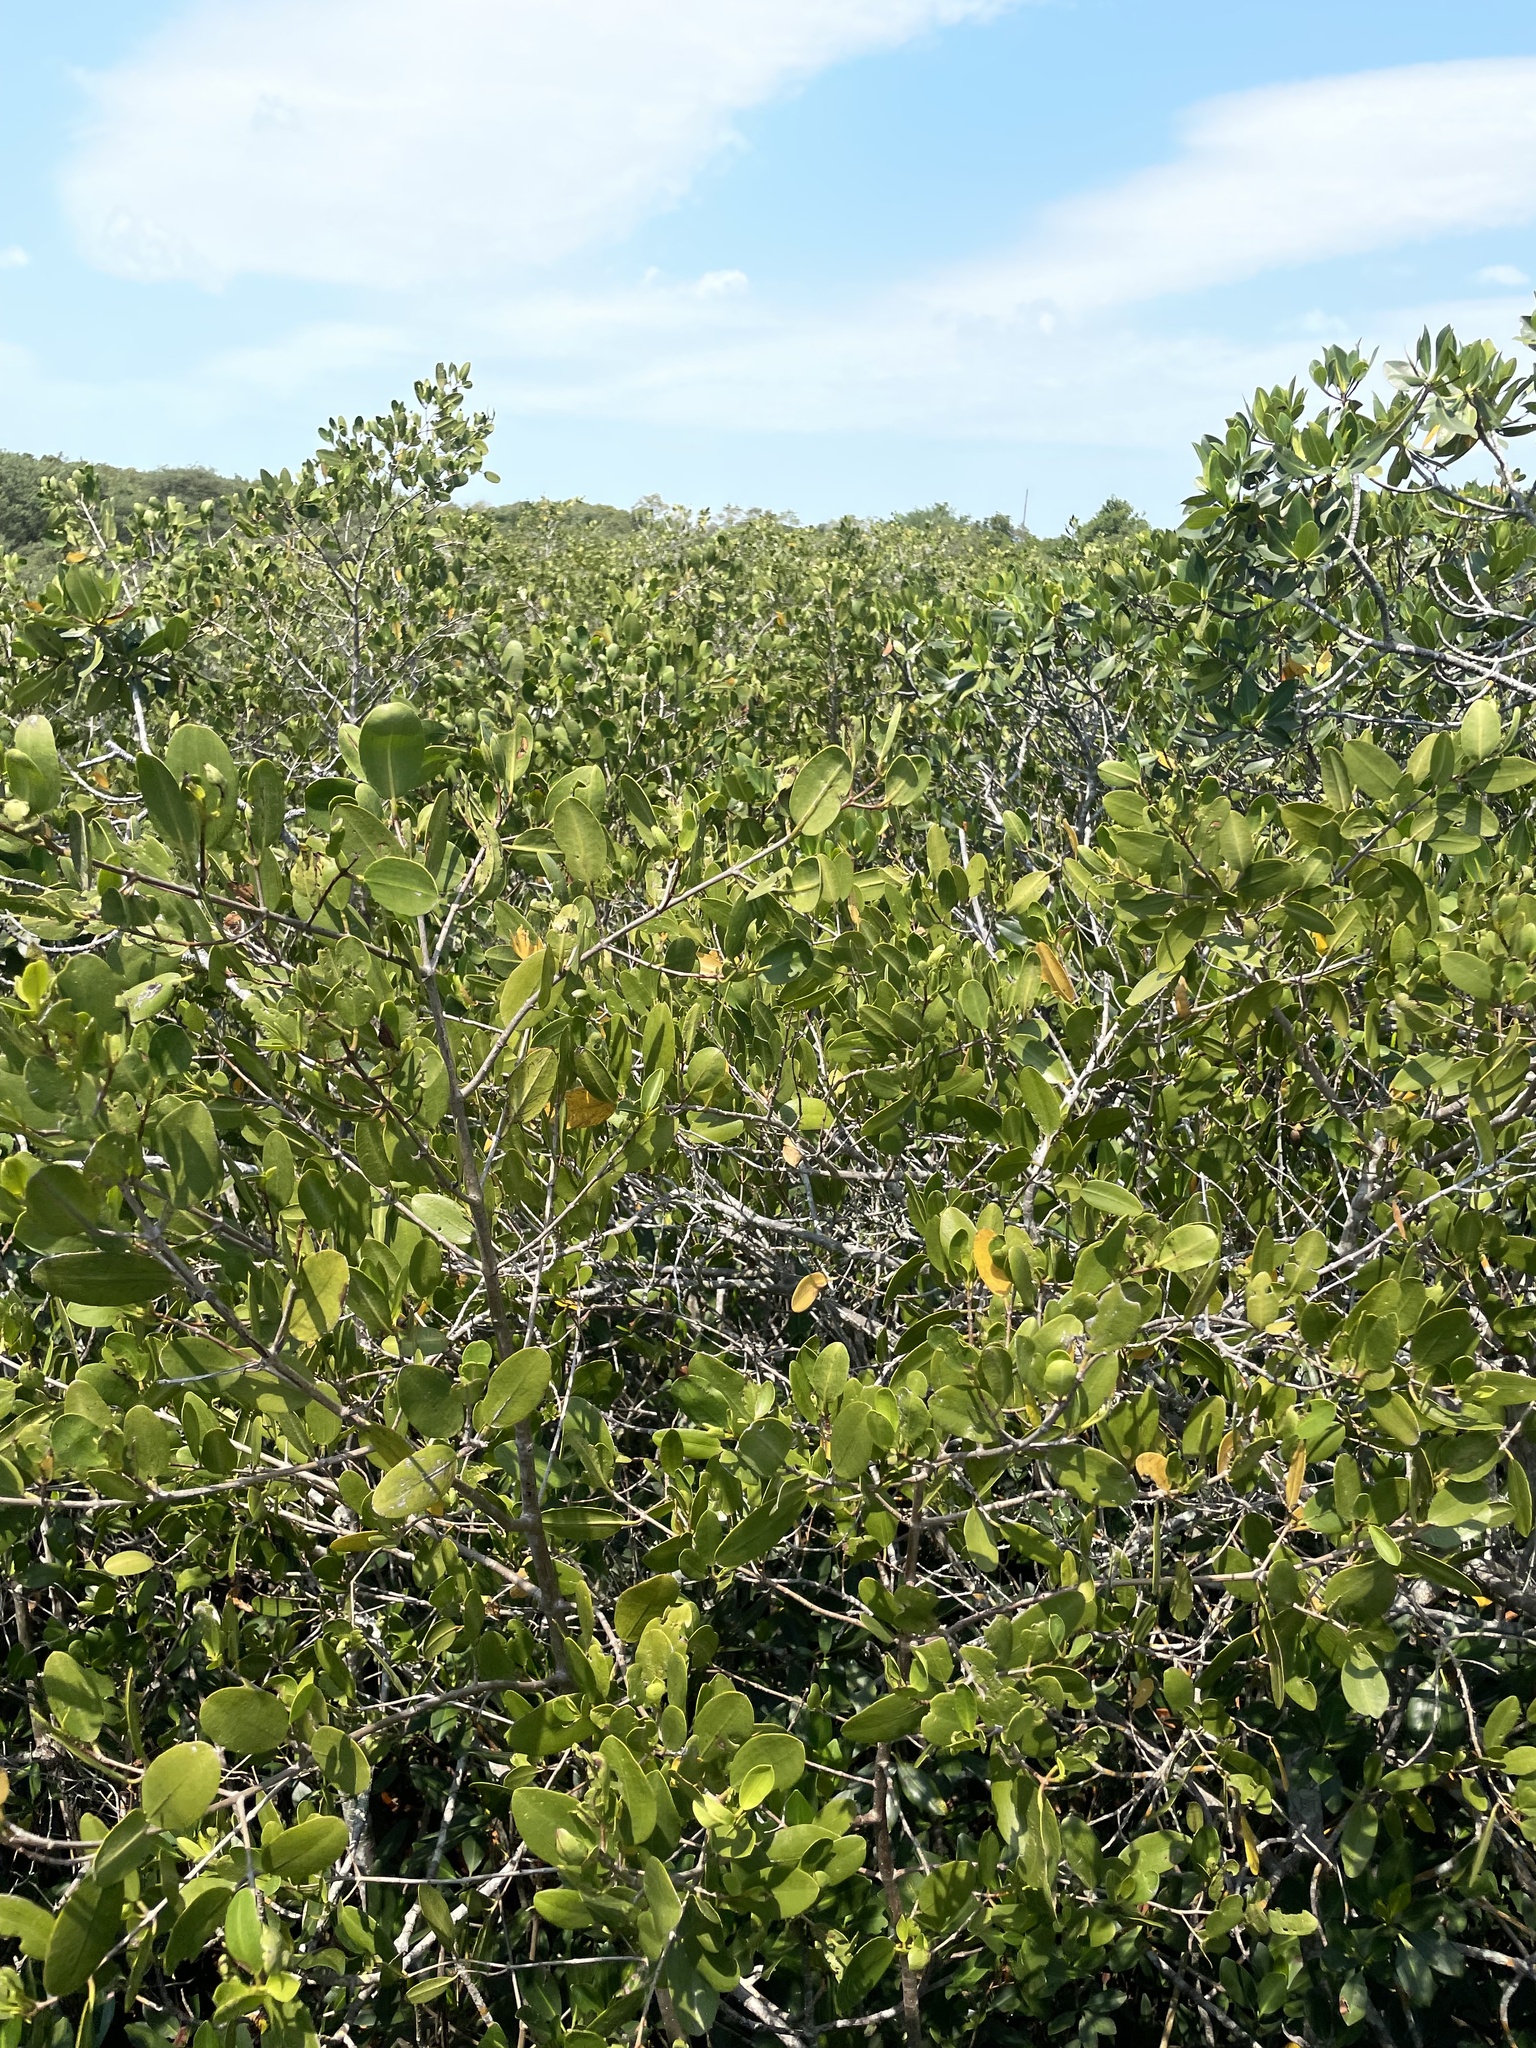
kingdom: Plantae
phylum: Tracheophyta
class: Magnoliopsida
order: Myrtales
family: Combretaceae
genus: Laguncularia
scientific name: Laguncularia racemosa
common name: White mangrove
